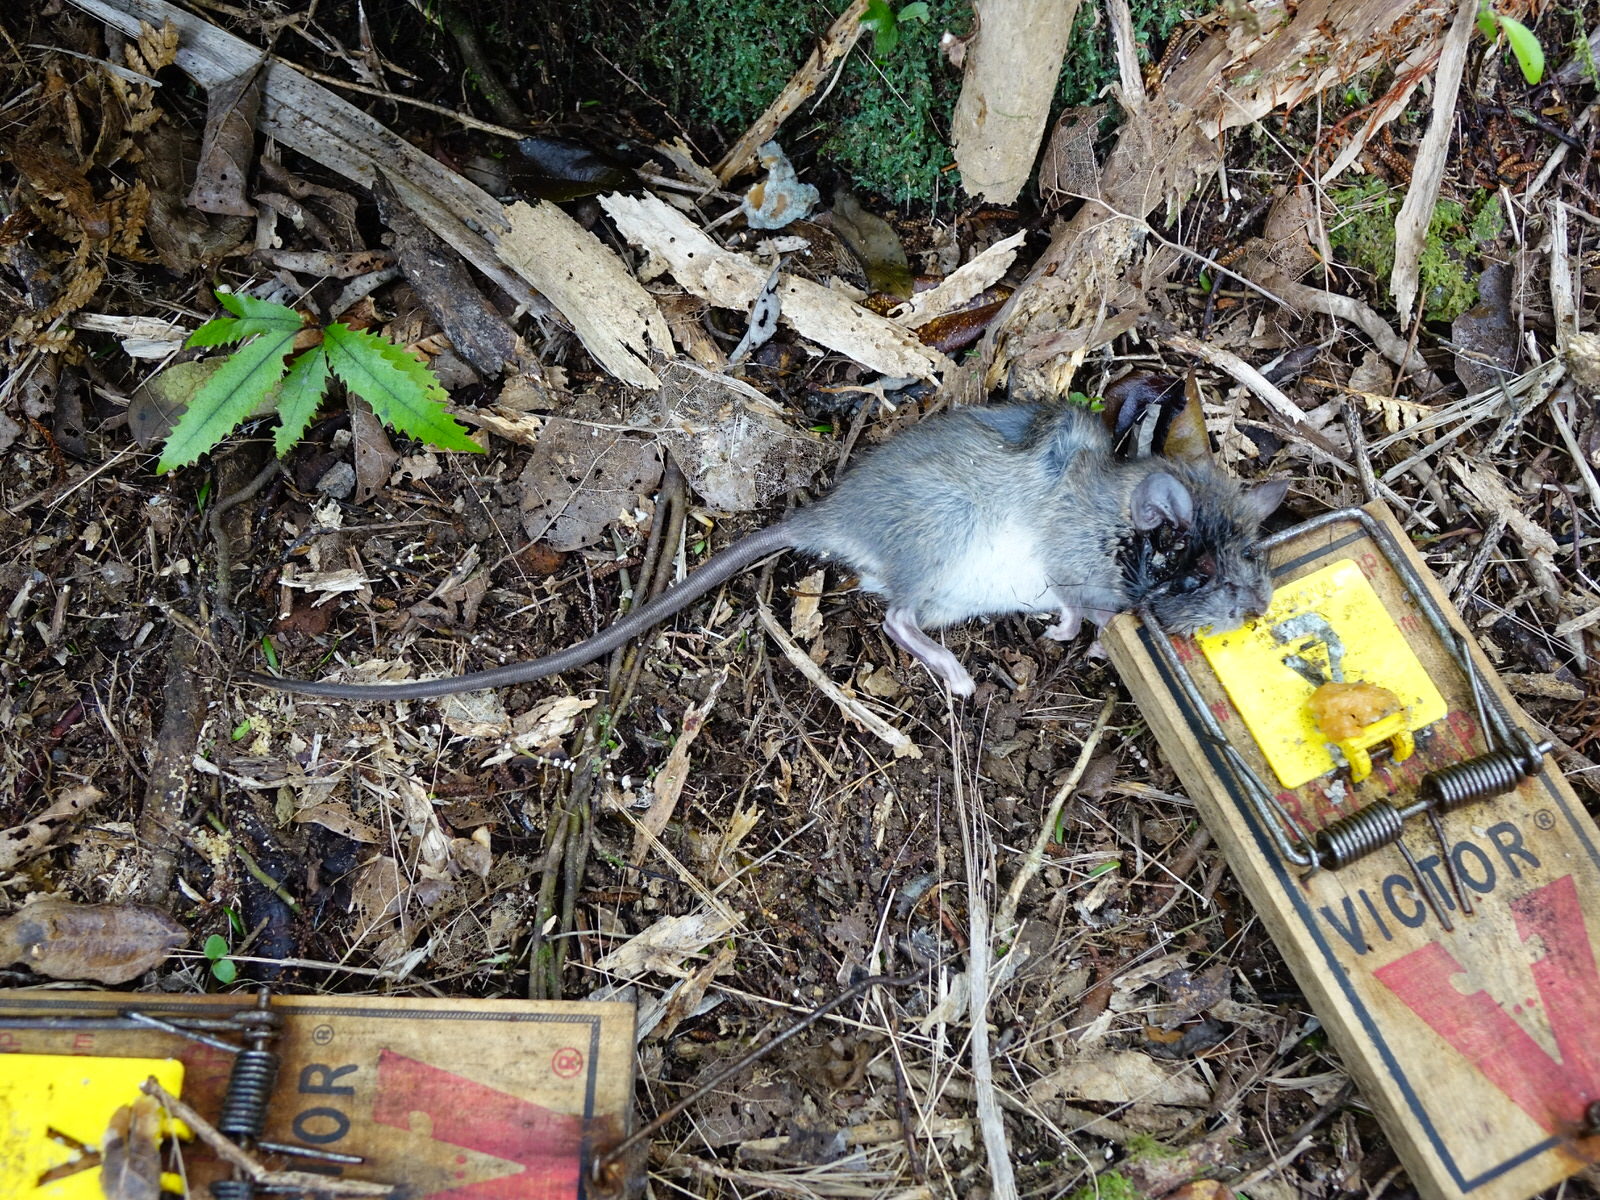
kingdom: Animalia
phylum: Chordata
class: Mammalia
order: Rodentia
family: Muridae
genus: Rattus
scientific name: Rattus rattus
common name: Black rat
